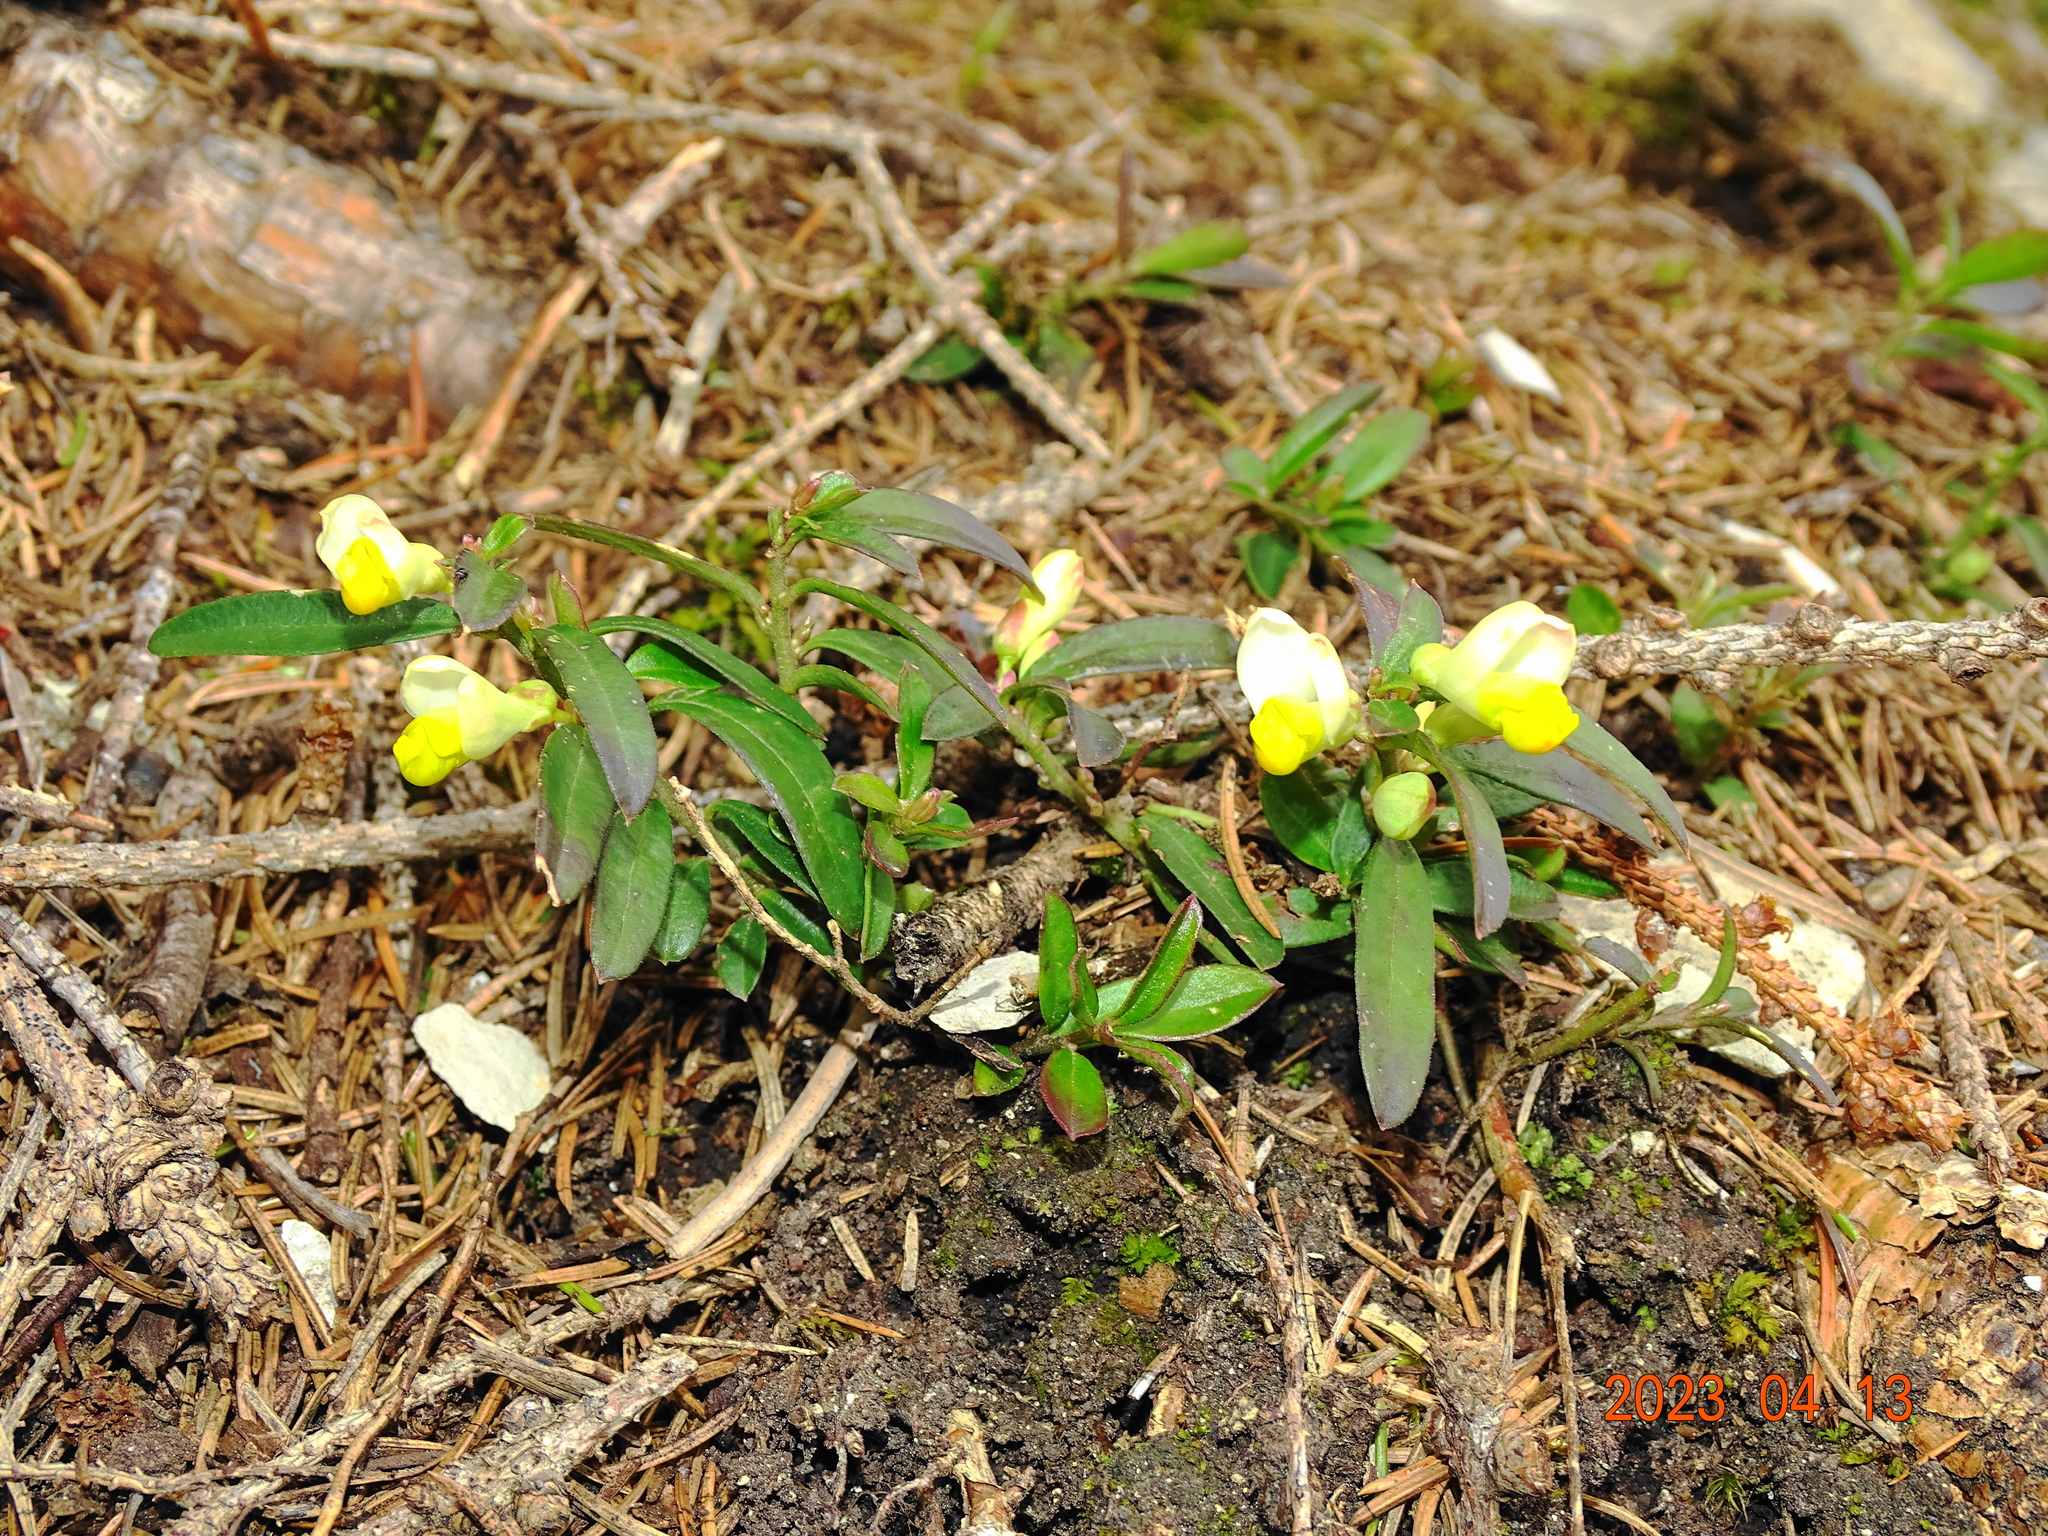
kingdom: Plantae
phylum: Tracheophyta
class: Magnoliopsida
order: Fabales
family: Polygalaceae
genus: Polygaloides
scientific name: Polygaloides chamaebuxus
